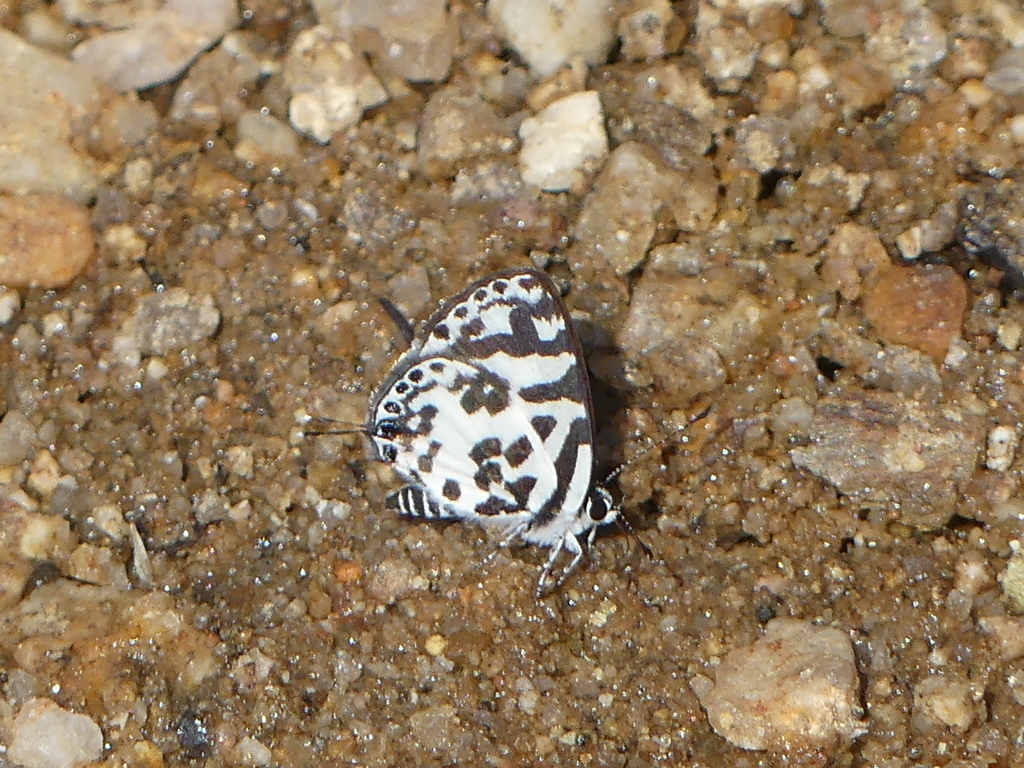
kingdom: Animalia
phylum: Arthropoda
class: Insecta
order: Lepidoptera
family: Lycaenidae
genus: Castalius
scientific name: Castalius melaena
